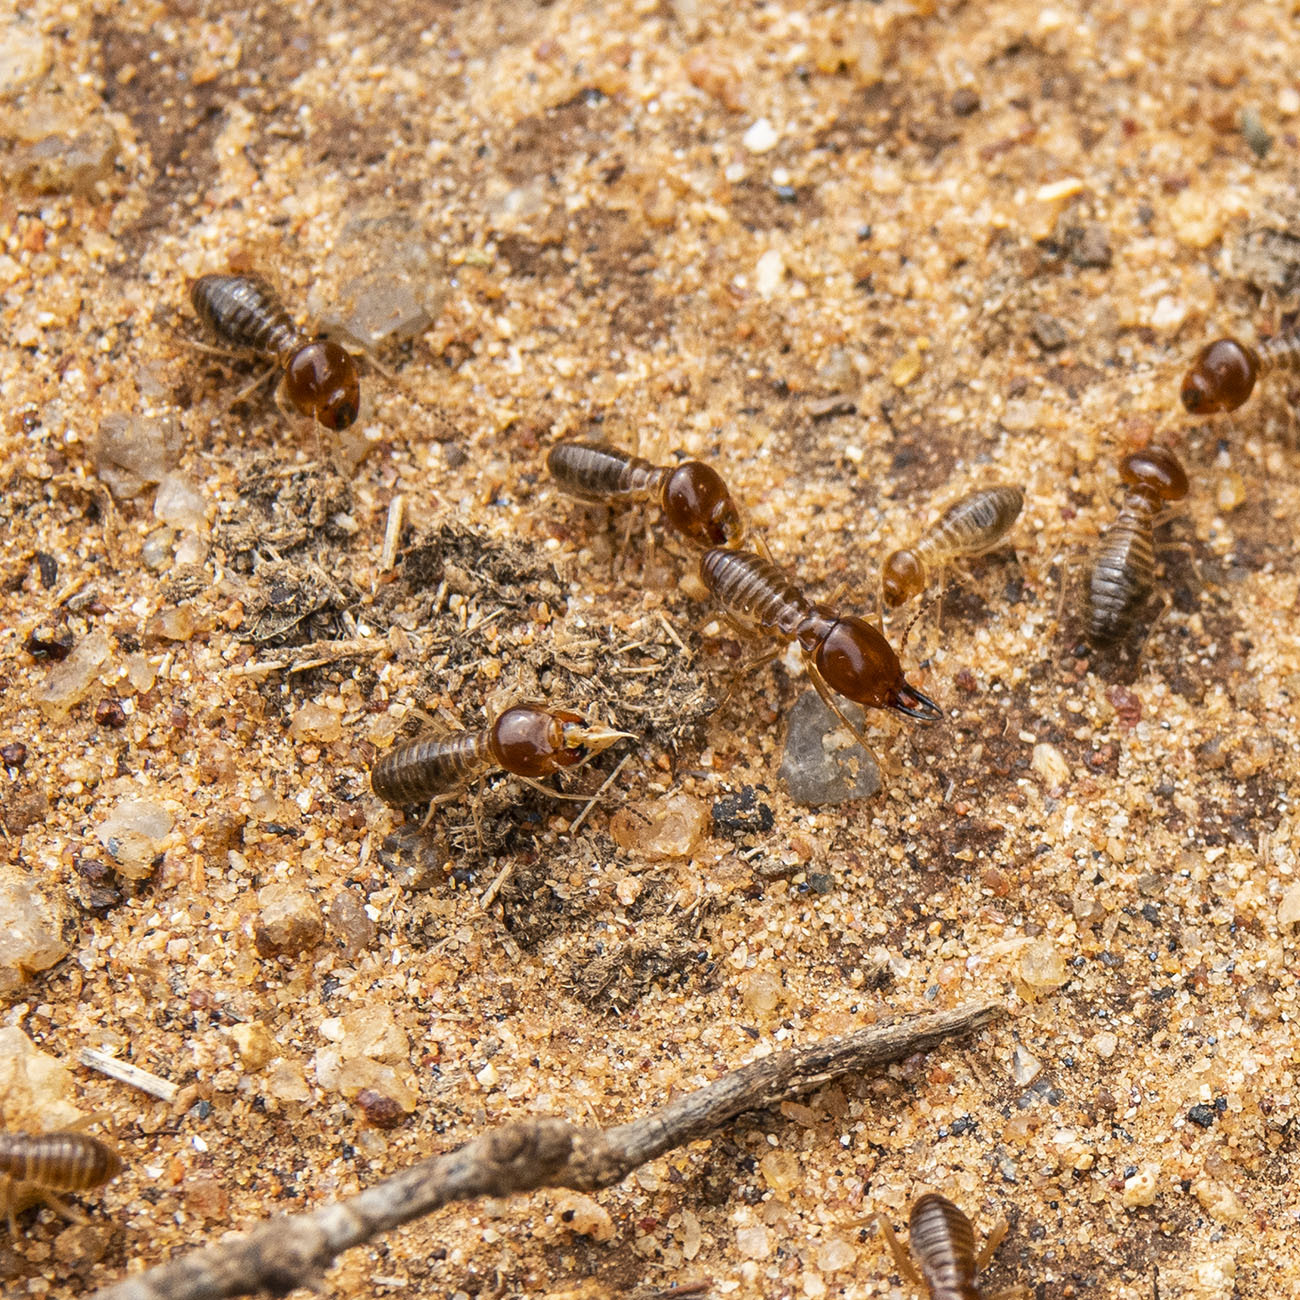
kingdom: Animalia
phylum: Arthropoda
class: Insecta
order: Blattodea
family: Termitidae
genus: Macrotermes
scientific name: Macrotermes convulsionarius
